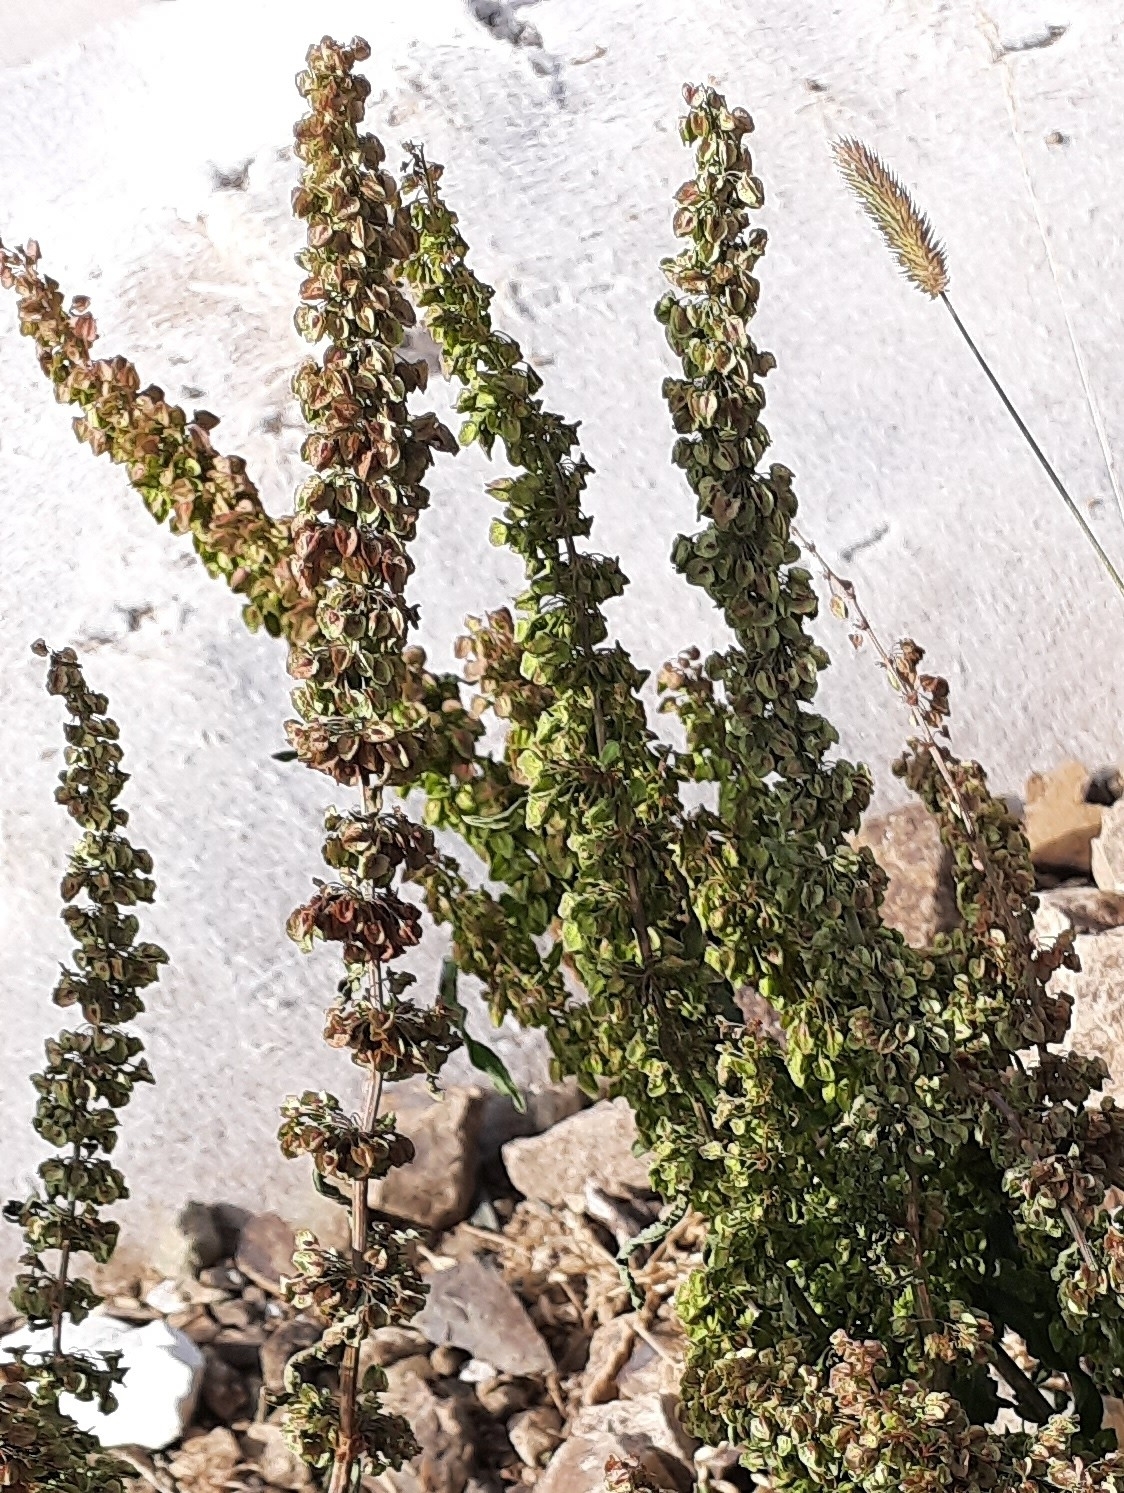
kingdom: Plantae
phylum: Tracheophyta
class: Magnoliopsida
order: Caryophyllales
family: Polygonaceae
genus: Rumex
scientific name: Rumex crispus
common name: Curled dock
